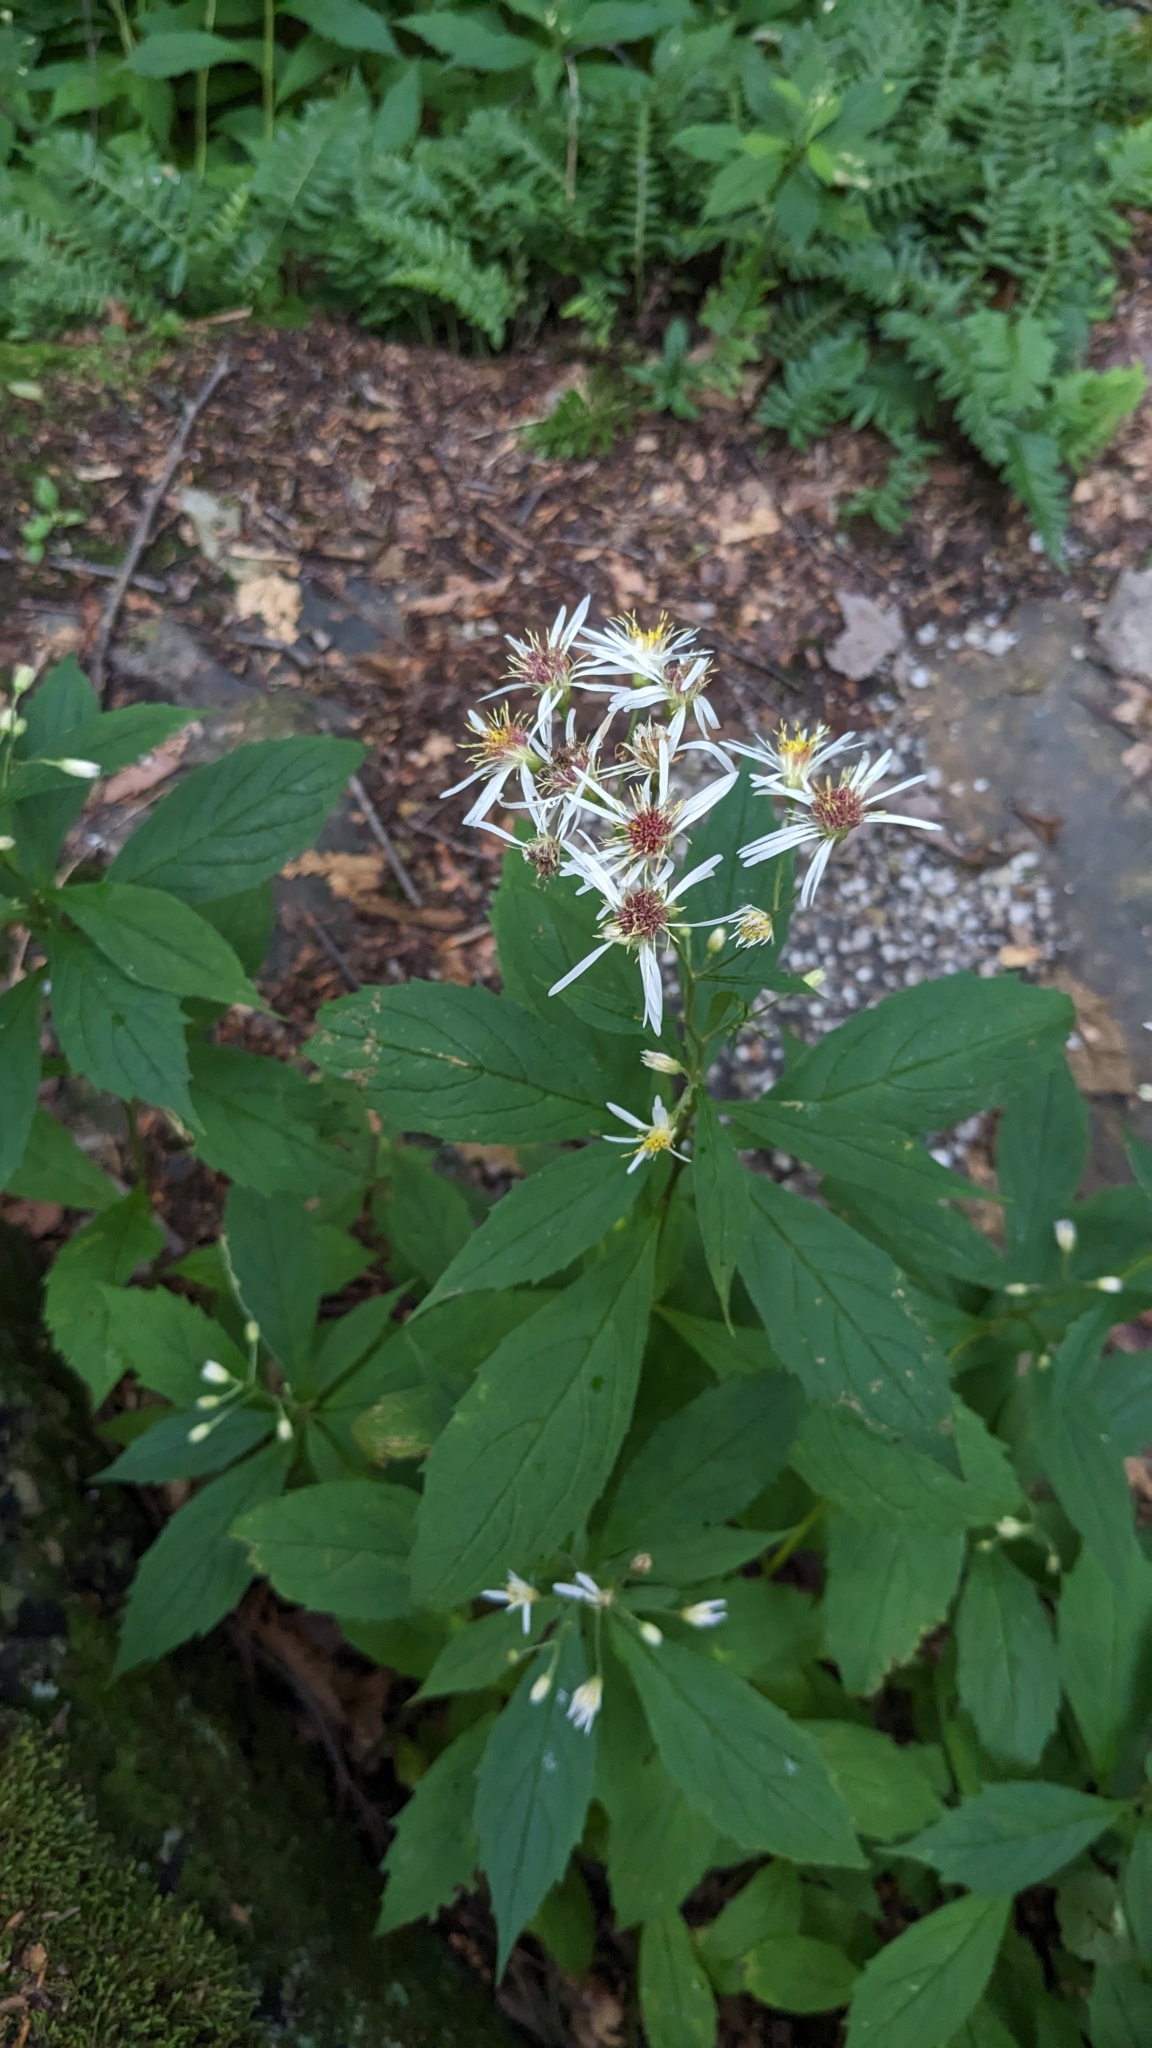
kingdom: Plantae
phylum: Tracheophyta
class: Magnoliopsida
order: Asterales
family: Asteraceae
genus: Oclemena
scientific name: Oclemena acuminata
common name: Mountain aster
